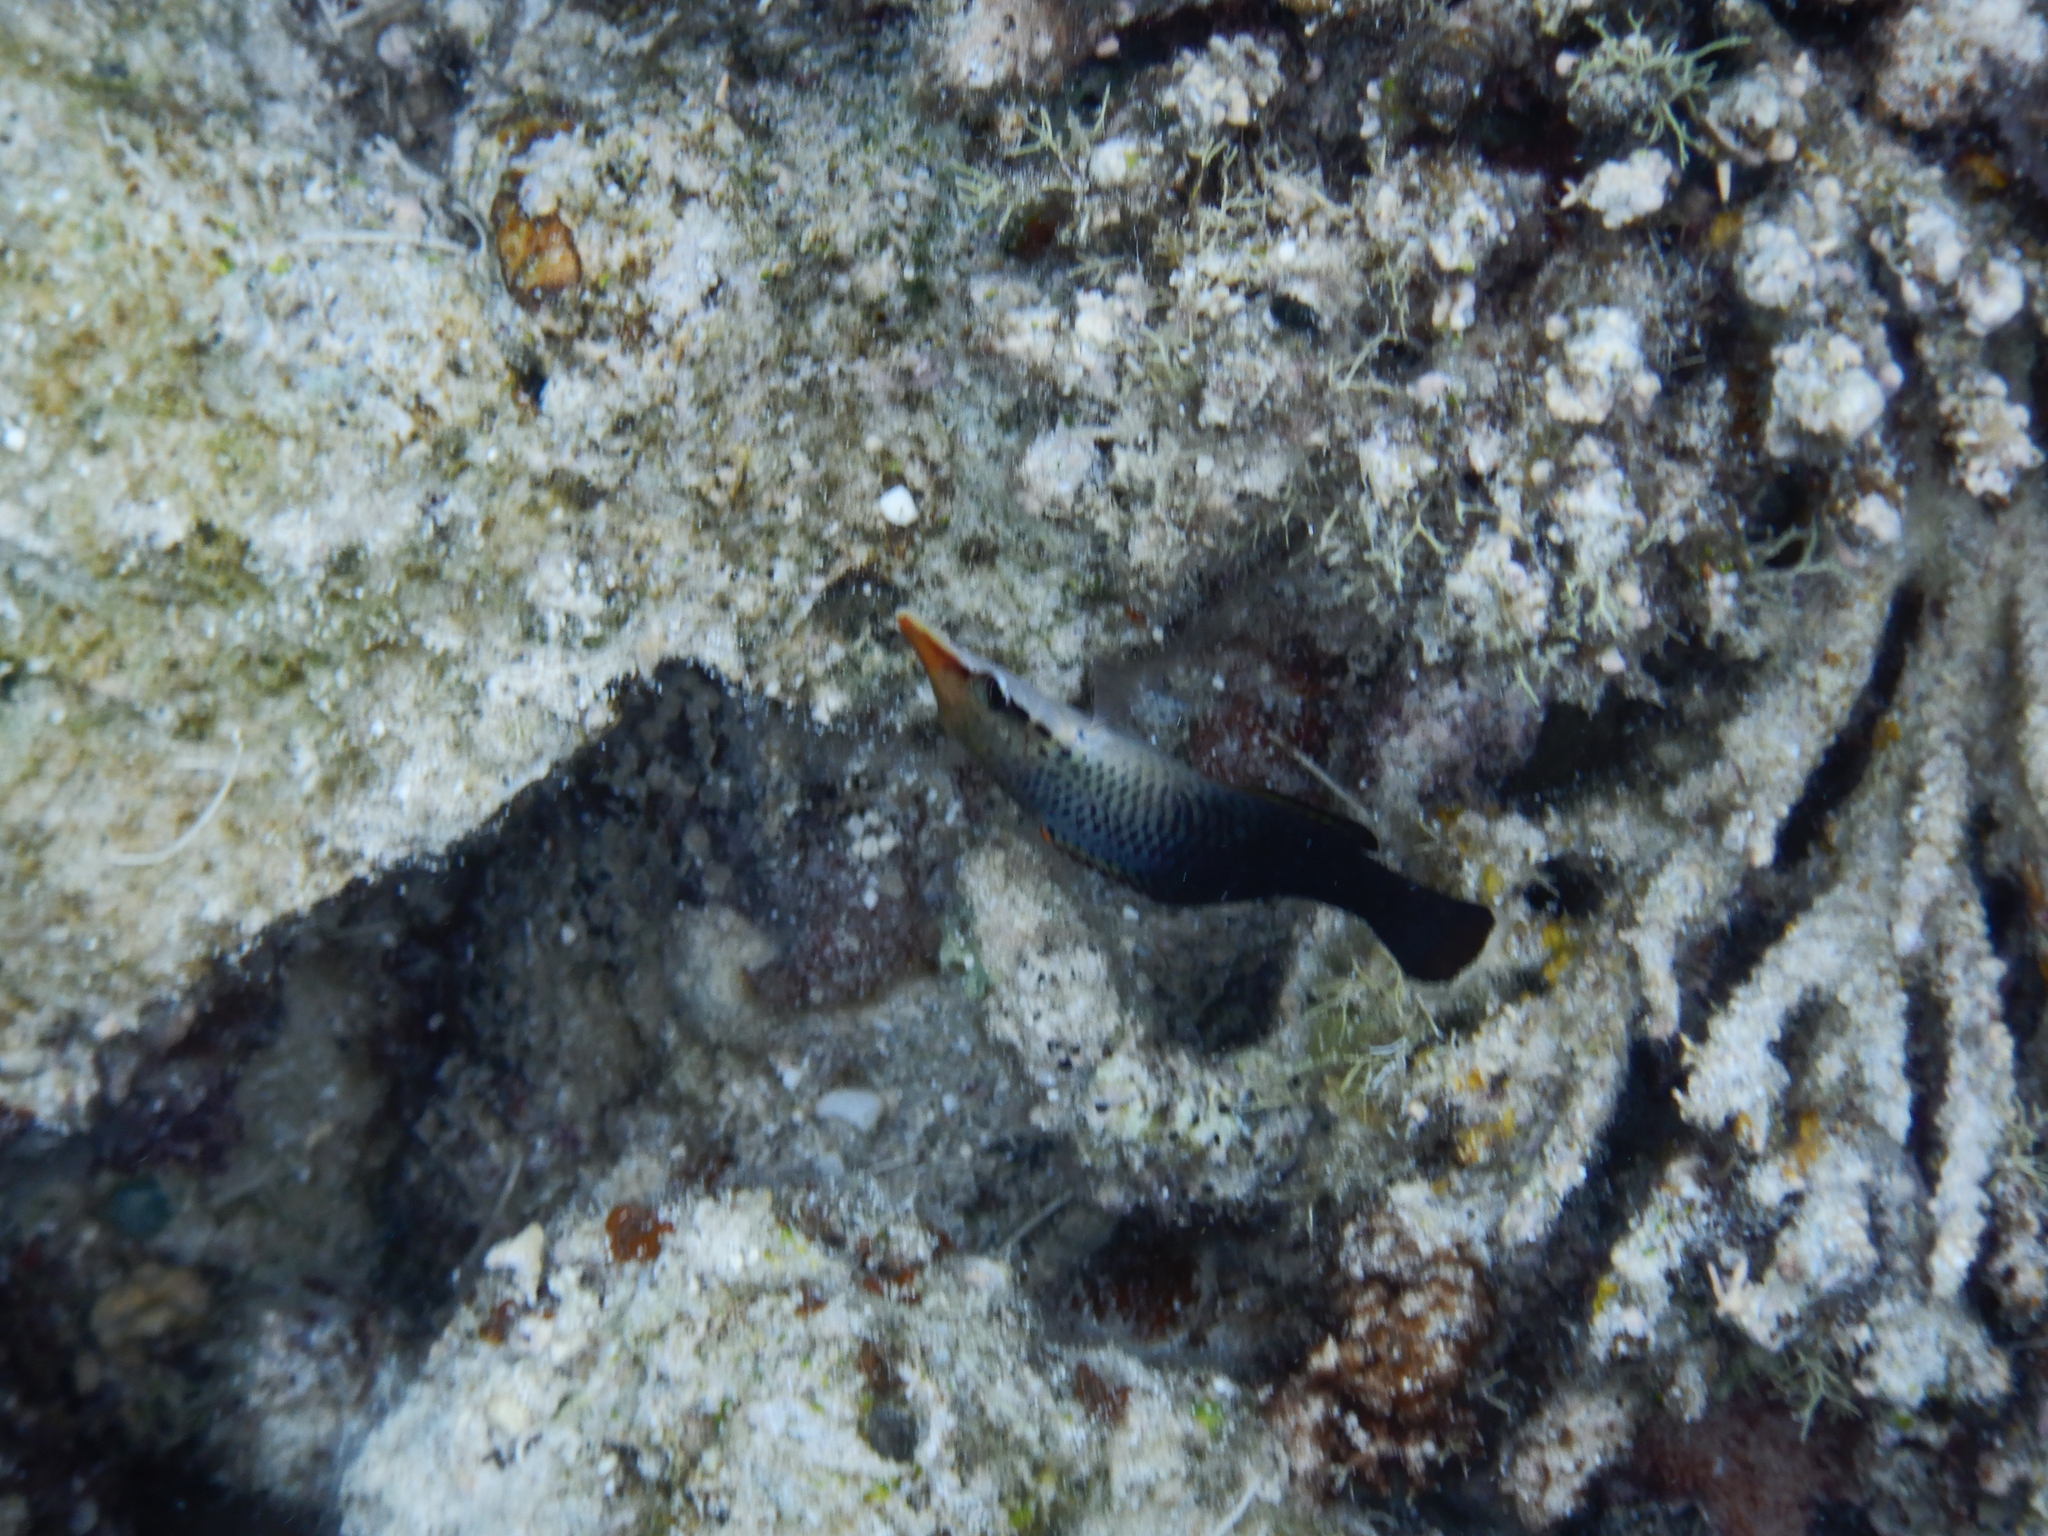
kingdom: Animalia
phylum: Chordata
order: Perciformes
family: Labridae
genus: Gomphosus
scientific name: Gomphosus varius
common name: Bird wrasse
